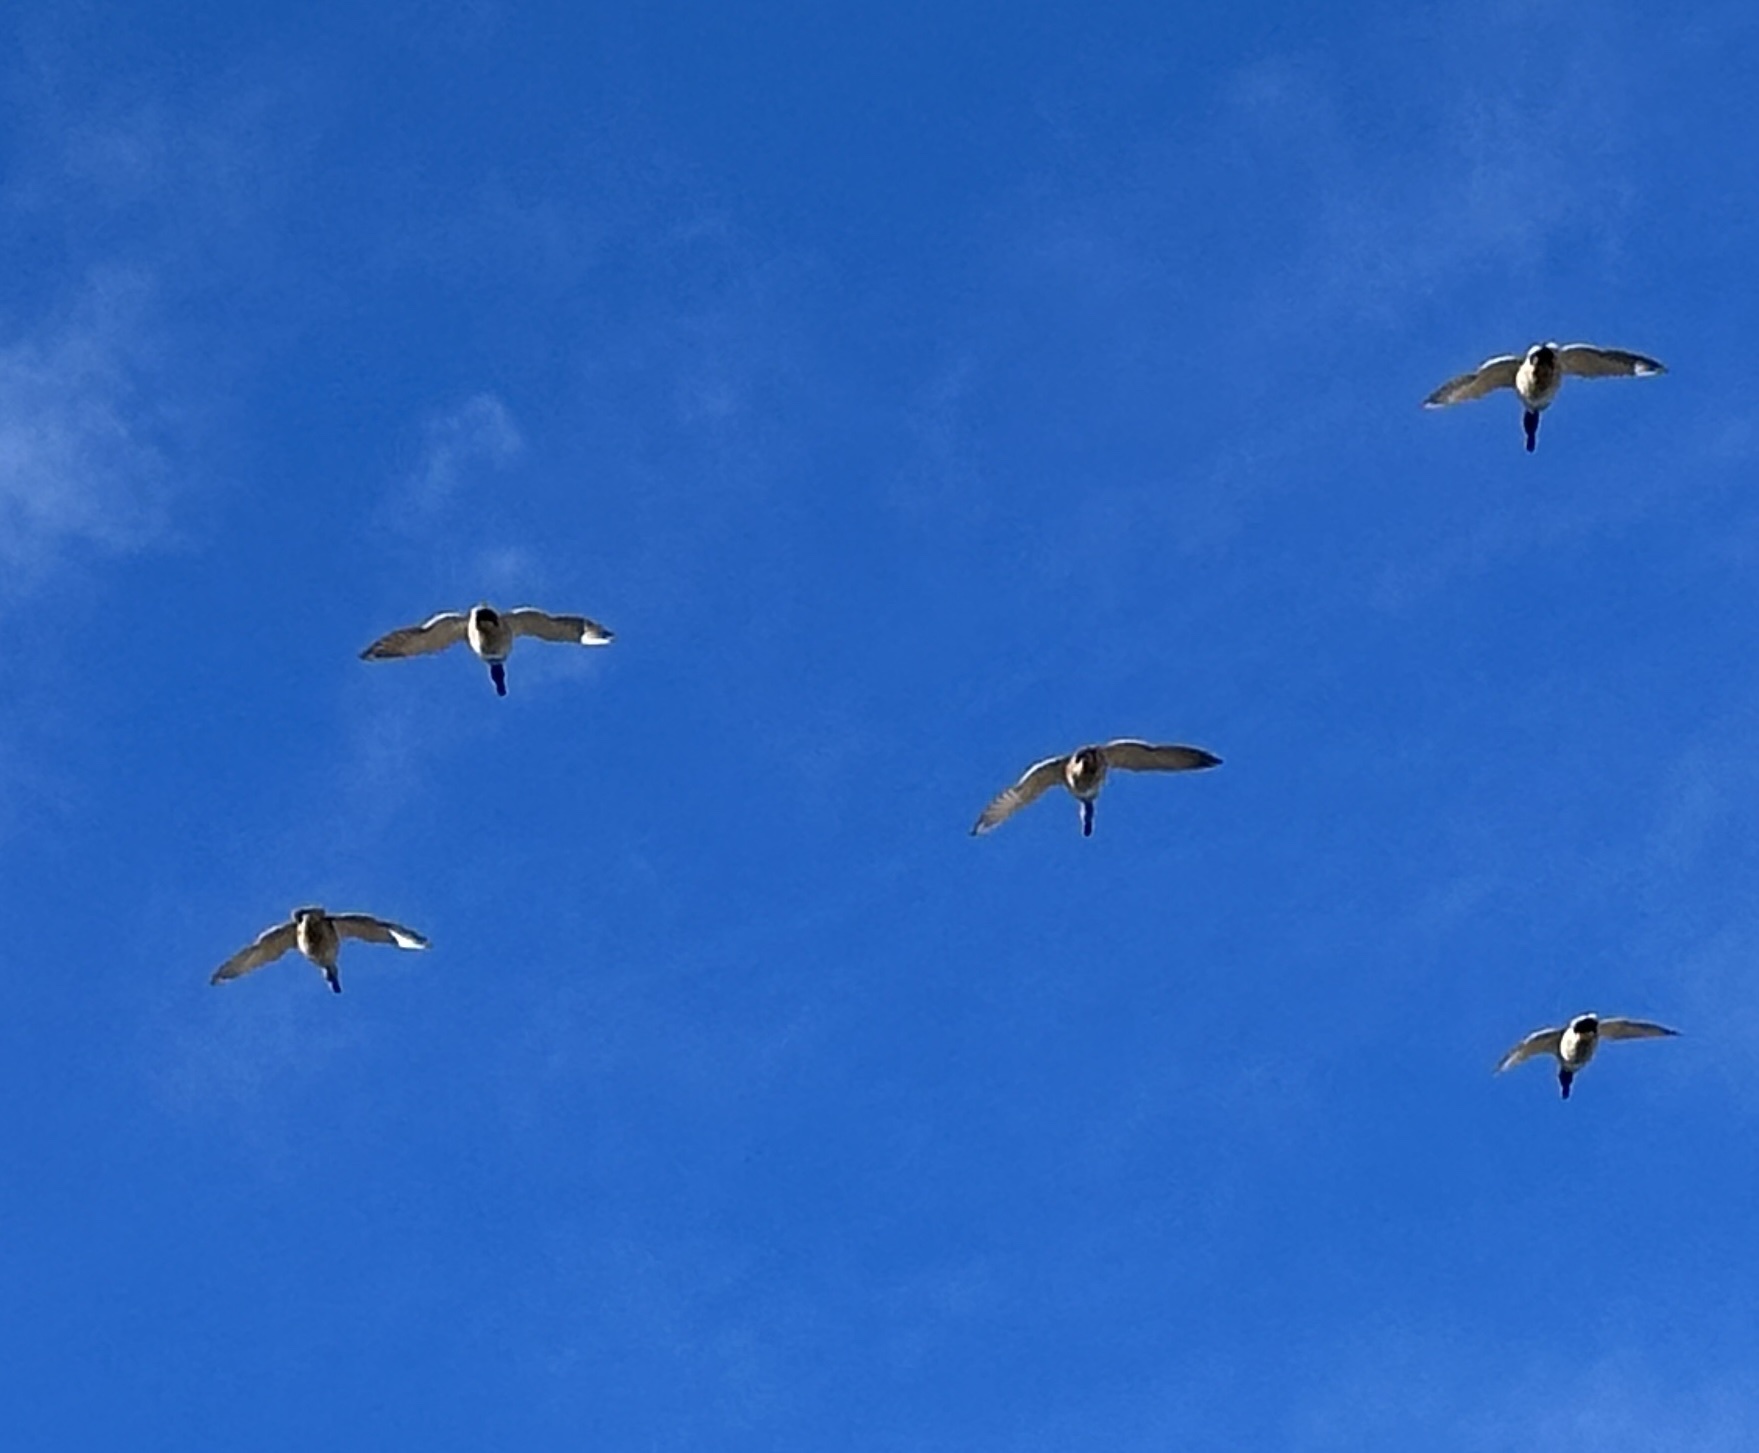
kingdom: Animalia
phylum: Chordata
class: Aves
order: Anseriformes
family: Anatidae
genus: Branta
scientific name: Branta canadensis
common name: Canada goose
